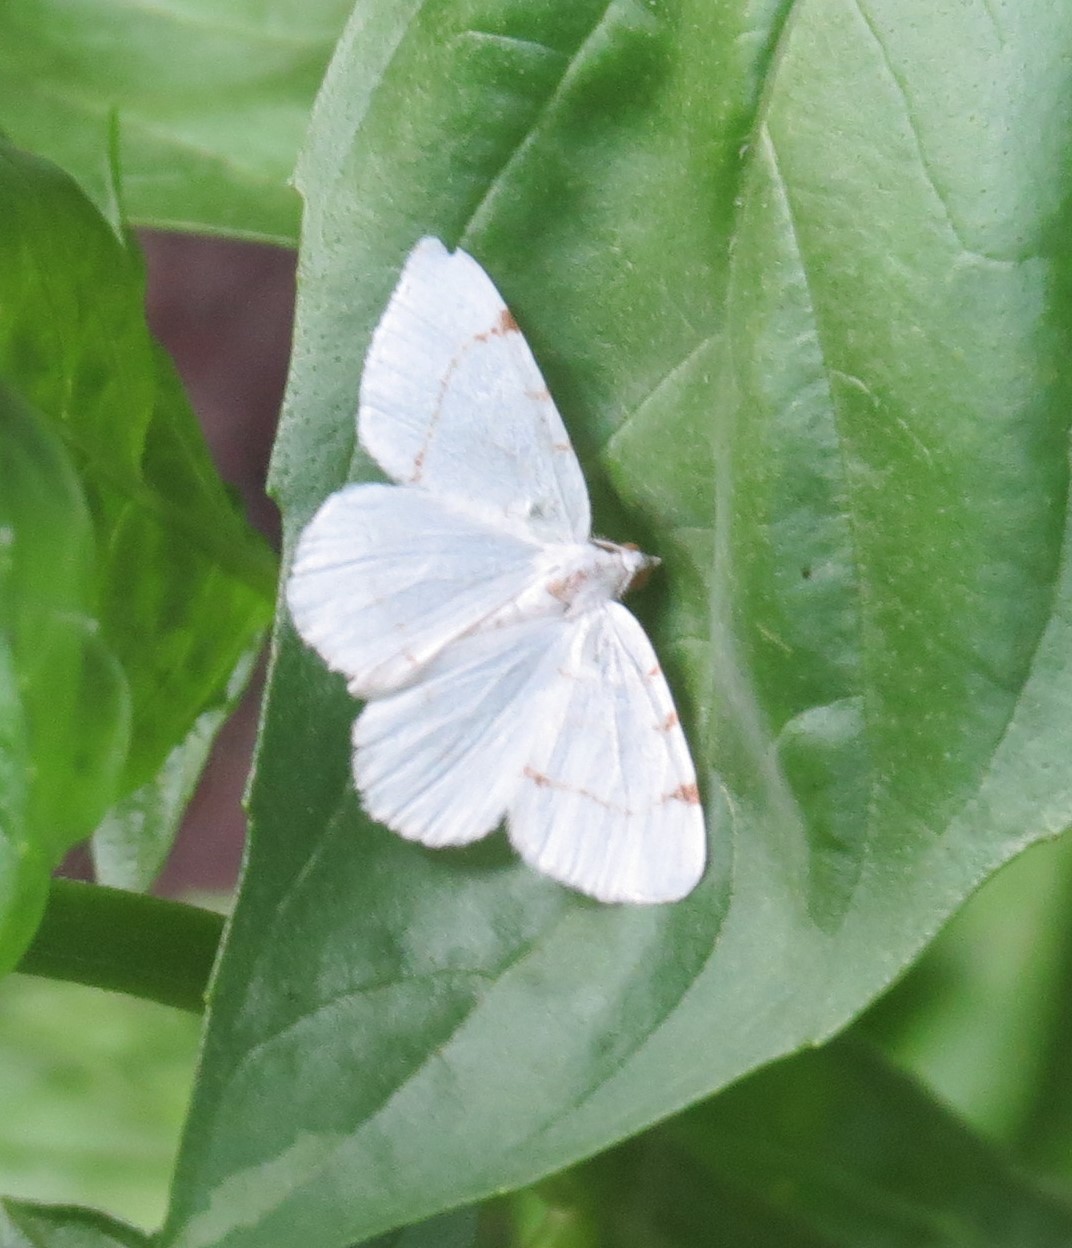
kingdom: Animalia
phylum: Arthropoda
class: Insecta
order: Lepidoptera
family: Geometridae
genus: Macaria
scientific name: Macaria pustularia
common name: Lesser maple spanworm moth
